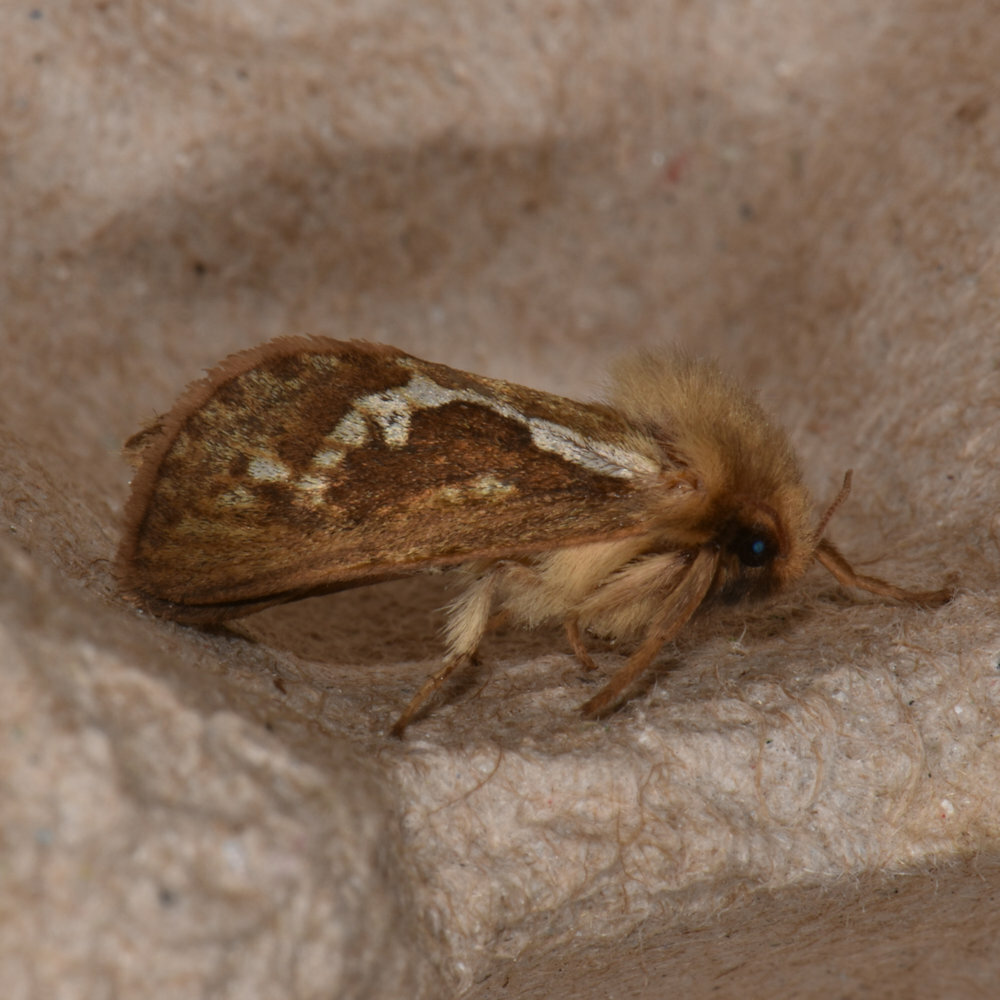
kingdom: Animalia
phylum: Arthropoda
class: Insecta
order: Lepidoptera
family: Hepialidae
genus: Korscheltellus
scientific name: Korscheltellus lupulina
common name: Common swift
